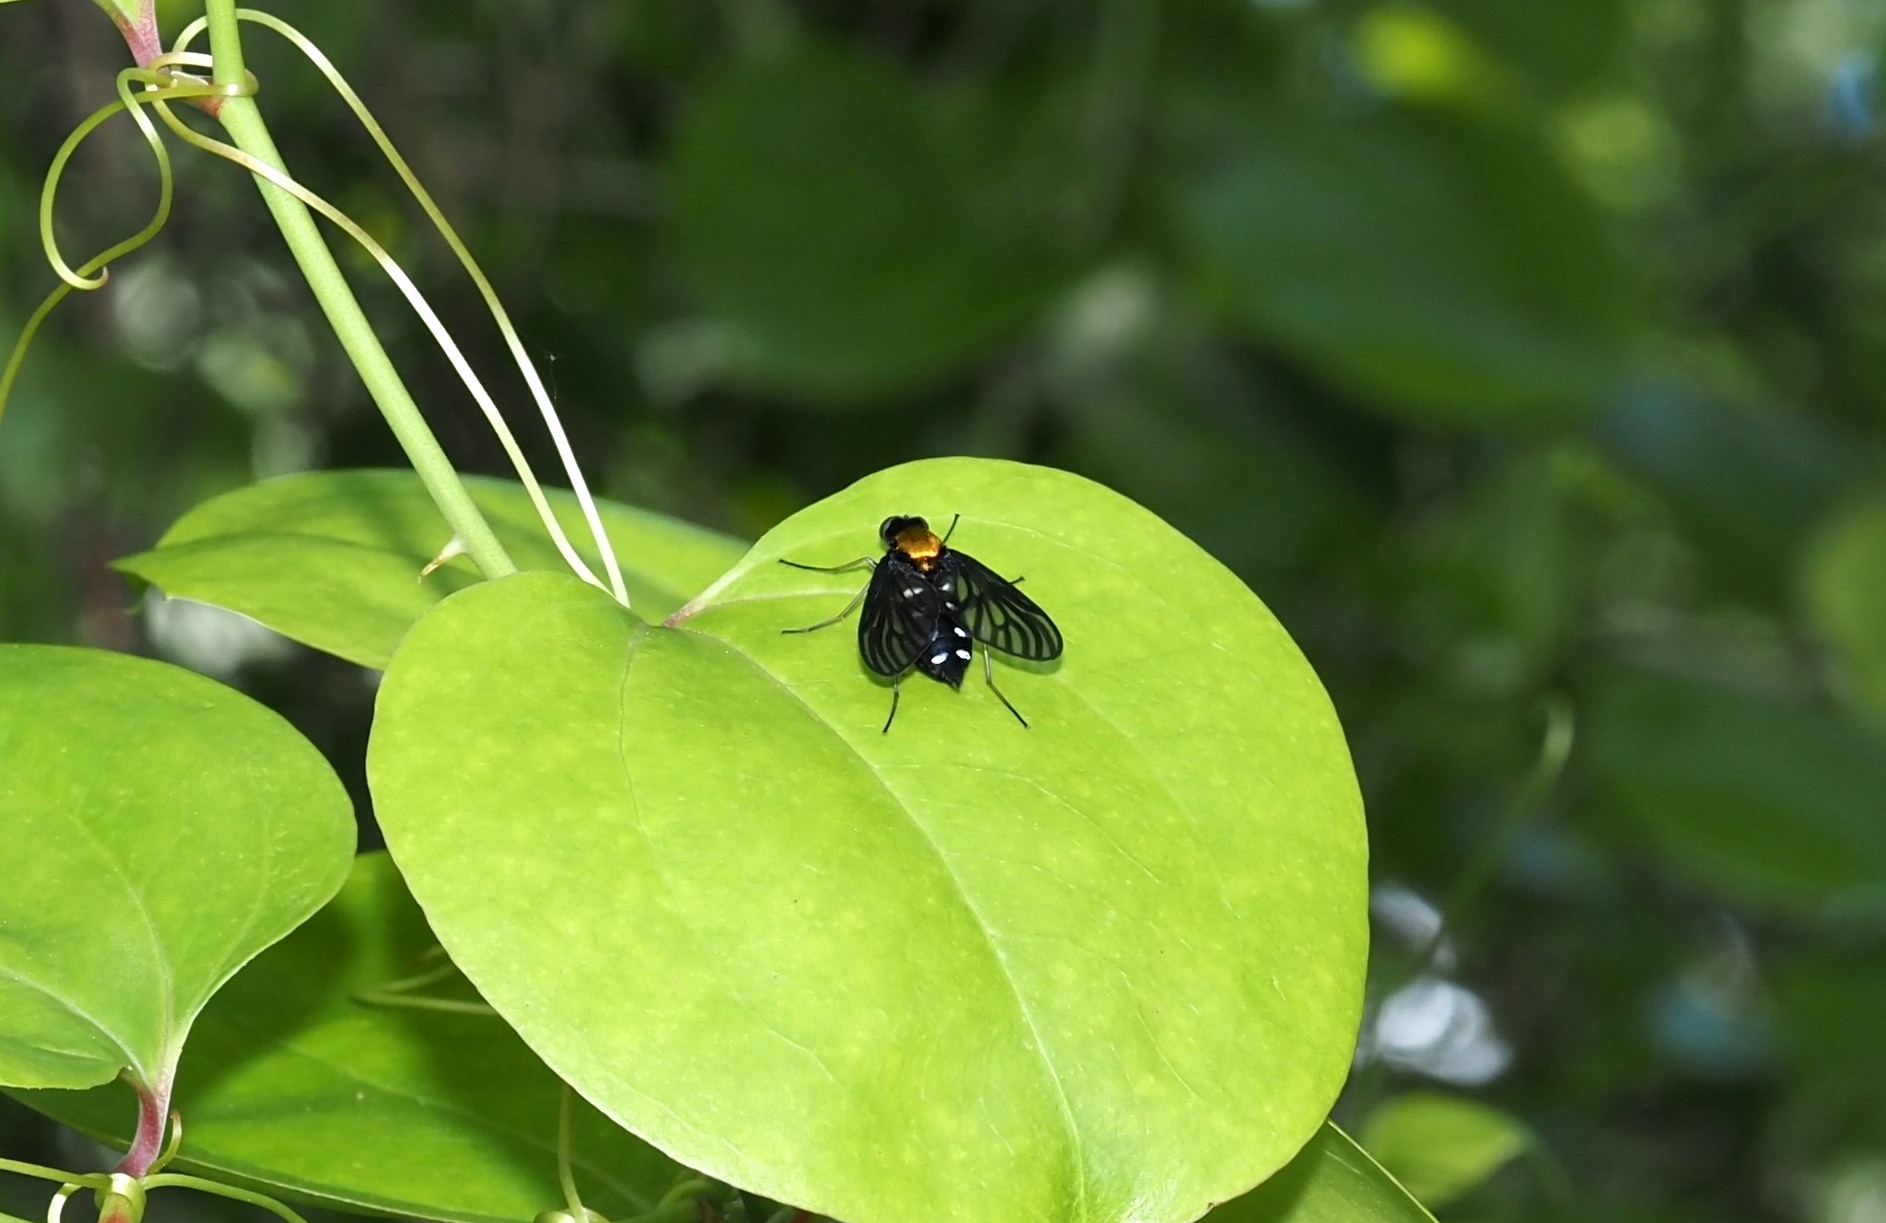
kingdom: Animalia
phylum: Arthropoda
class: Insecta
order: Diptera
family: Rhagionidae
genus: Chrysopilus
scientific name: Chrysopilus thoracicus
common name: Golden-backed snipe fly
